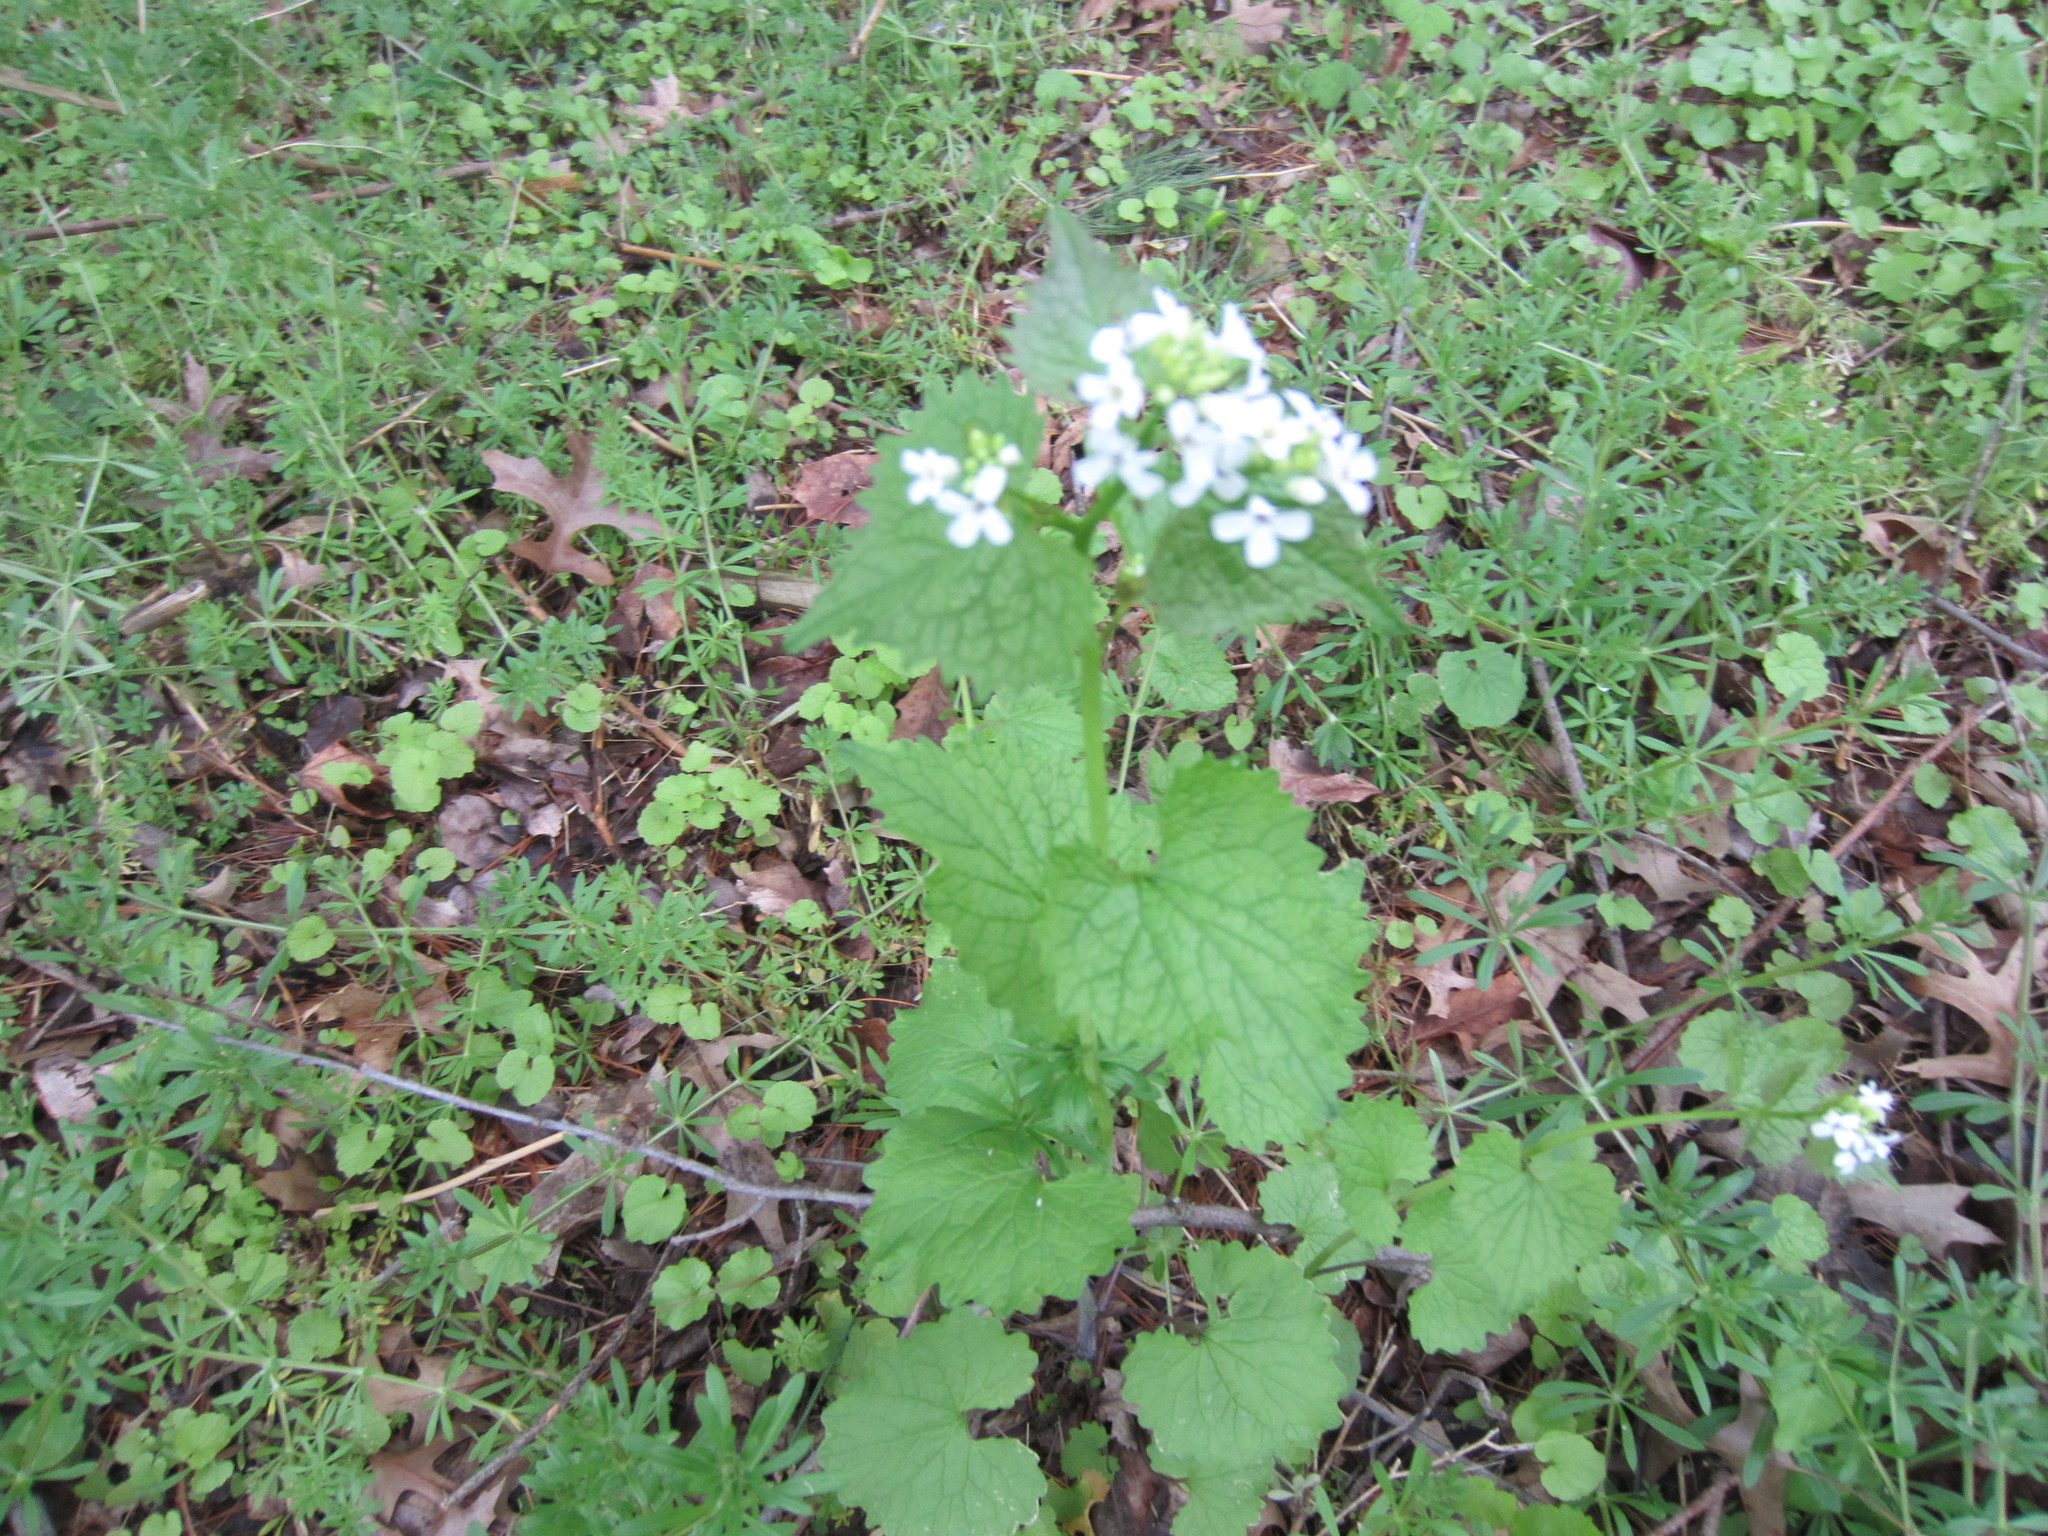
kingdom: Plantae
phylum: Tracheophyta
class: Magnoliopsida
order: Brassicales
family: Brassicaceae
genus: Alliaria
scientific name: Alliaria petiolata
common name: Garlic mustard
